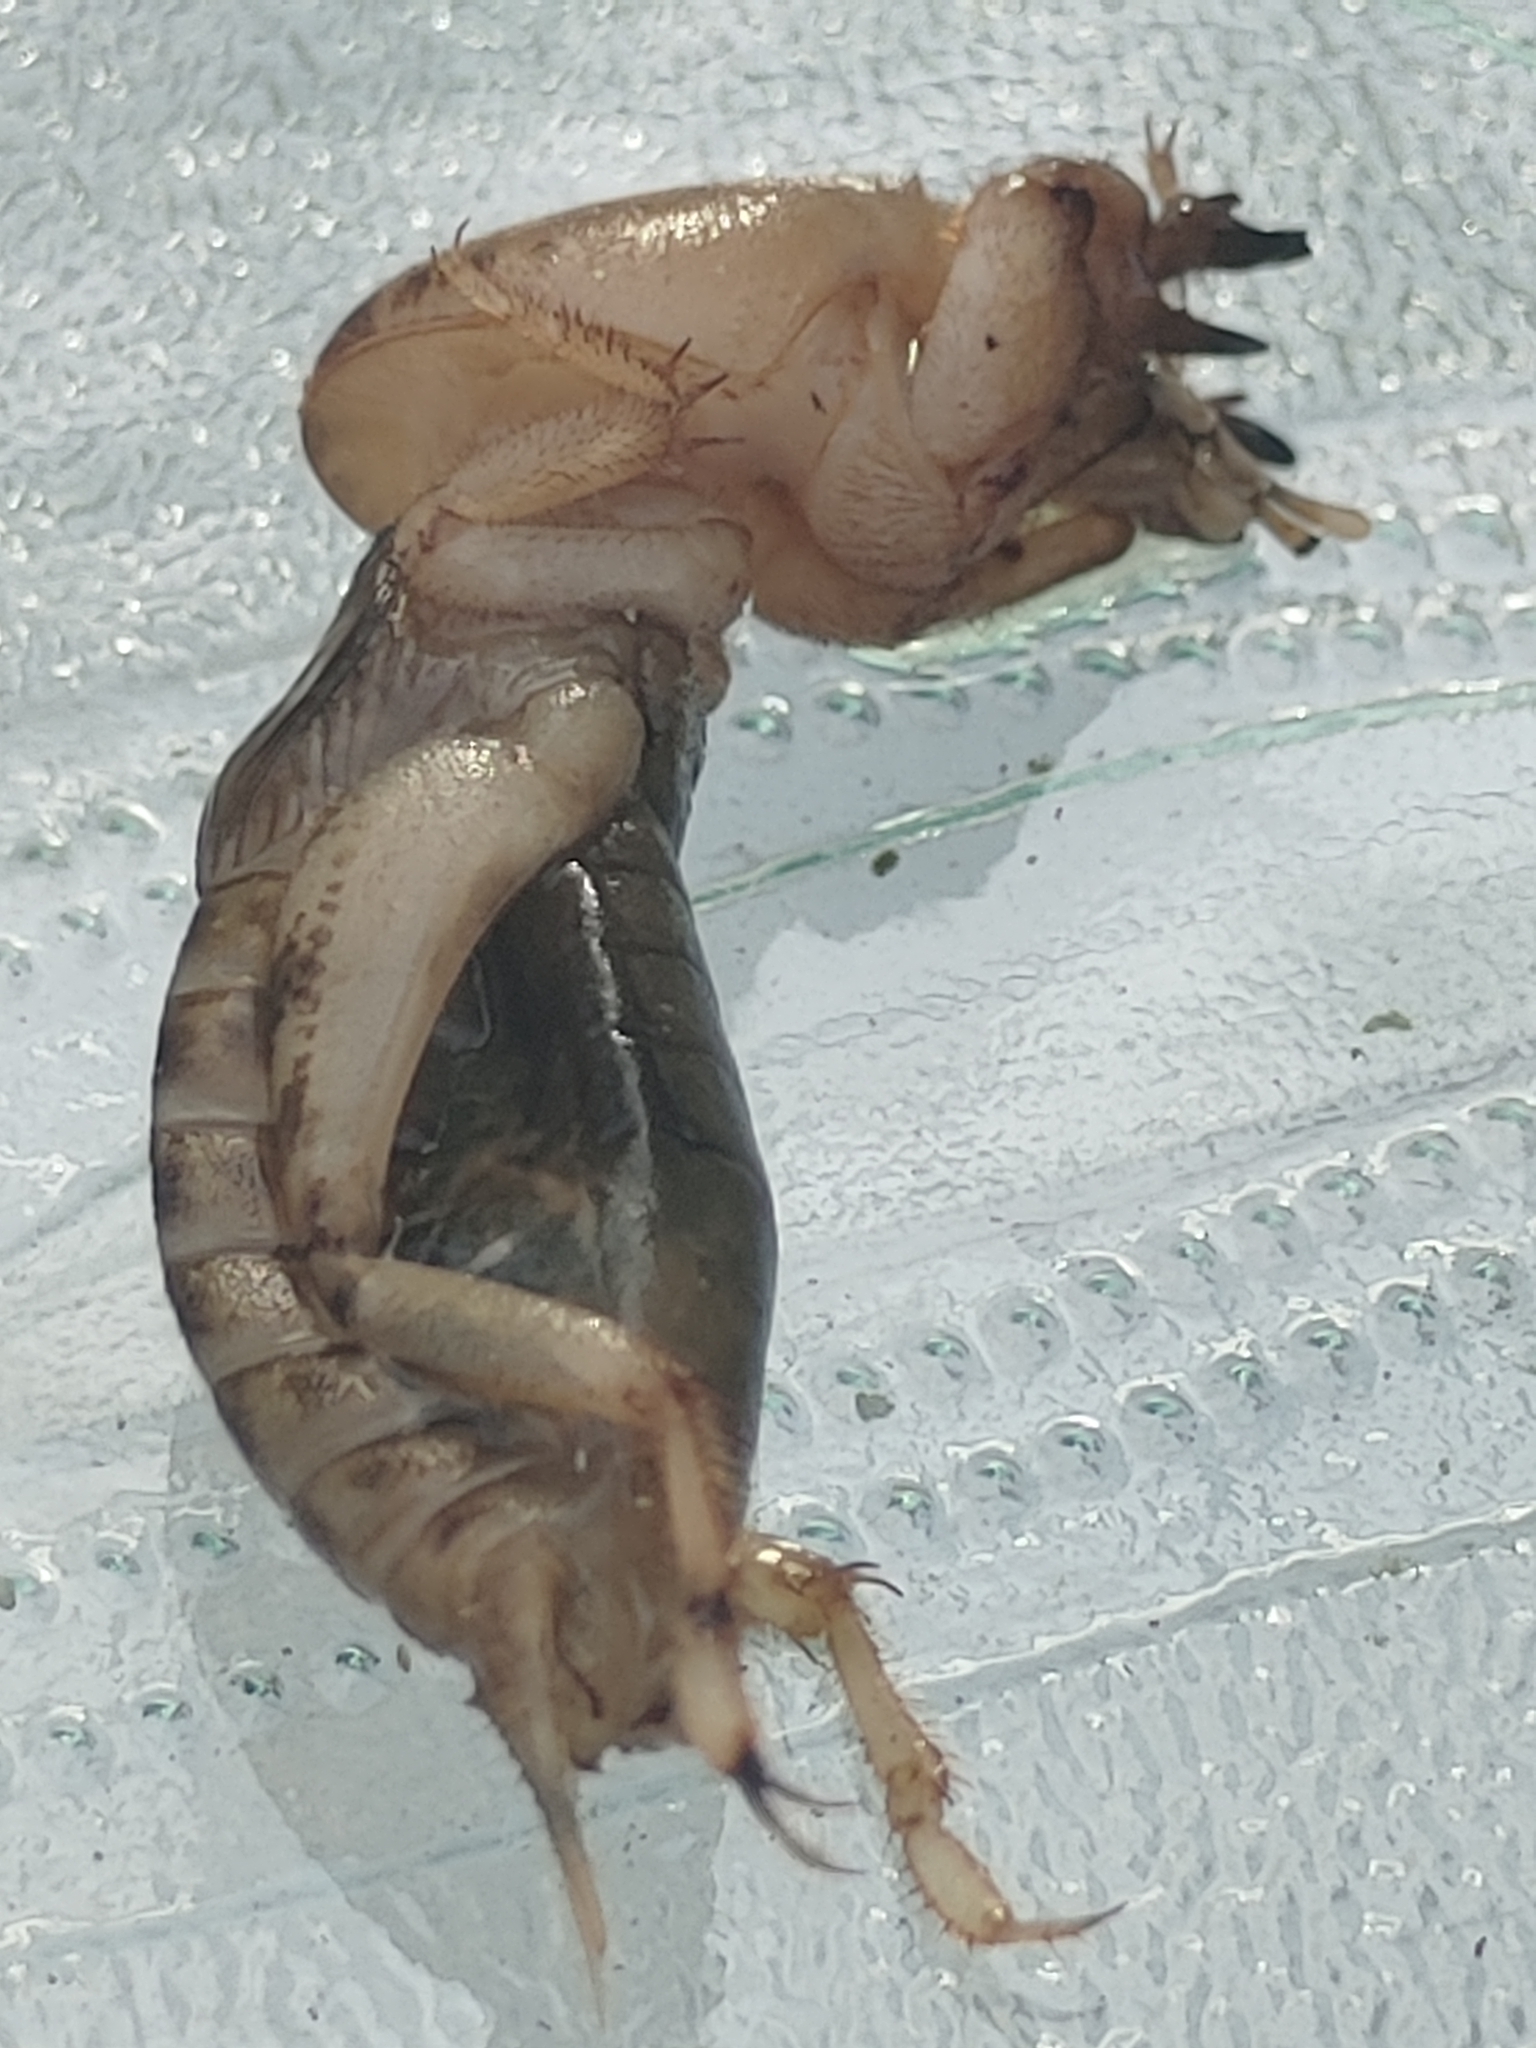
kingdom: Animalia
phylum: Arthropoda
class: Insecta
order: Orthoptera
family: Gryllotalpidae
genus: Neoscapteriscus
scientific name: Neoscapteriscus abbreviatus
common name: Short-winged mole cricket
